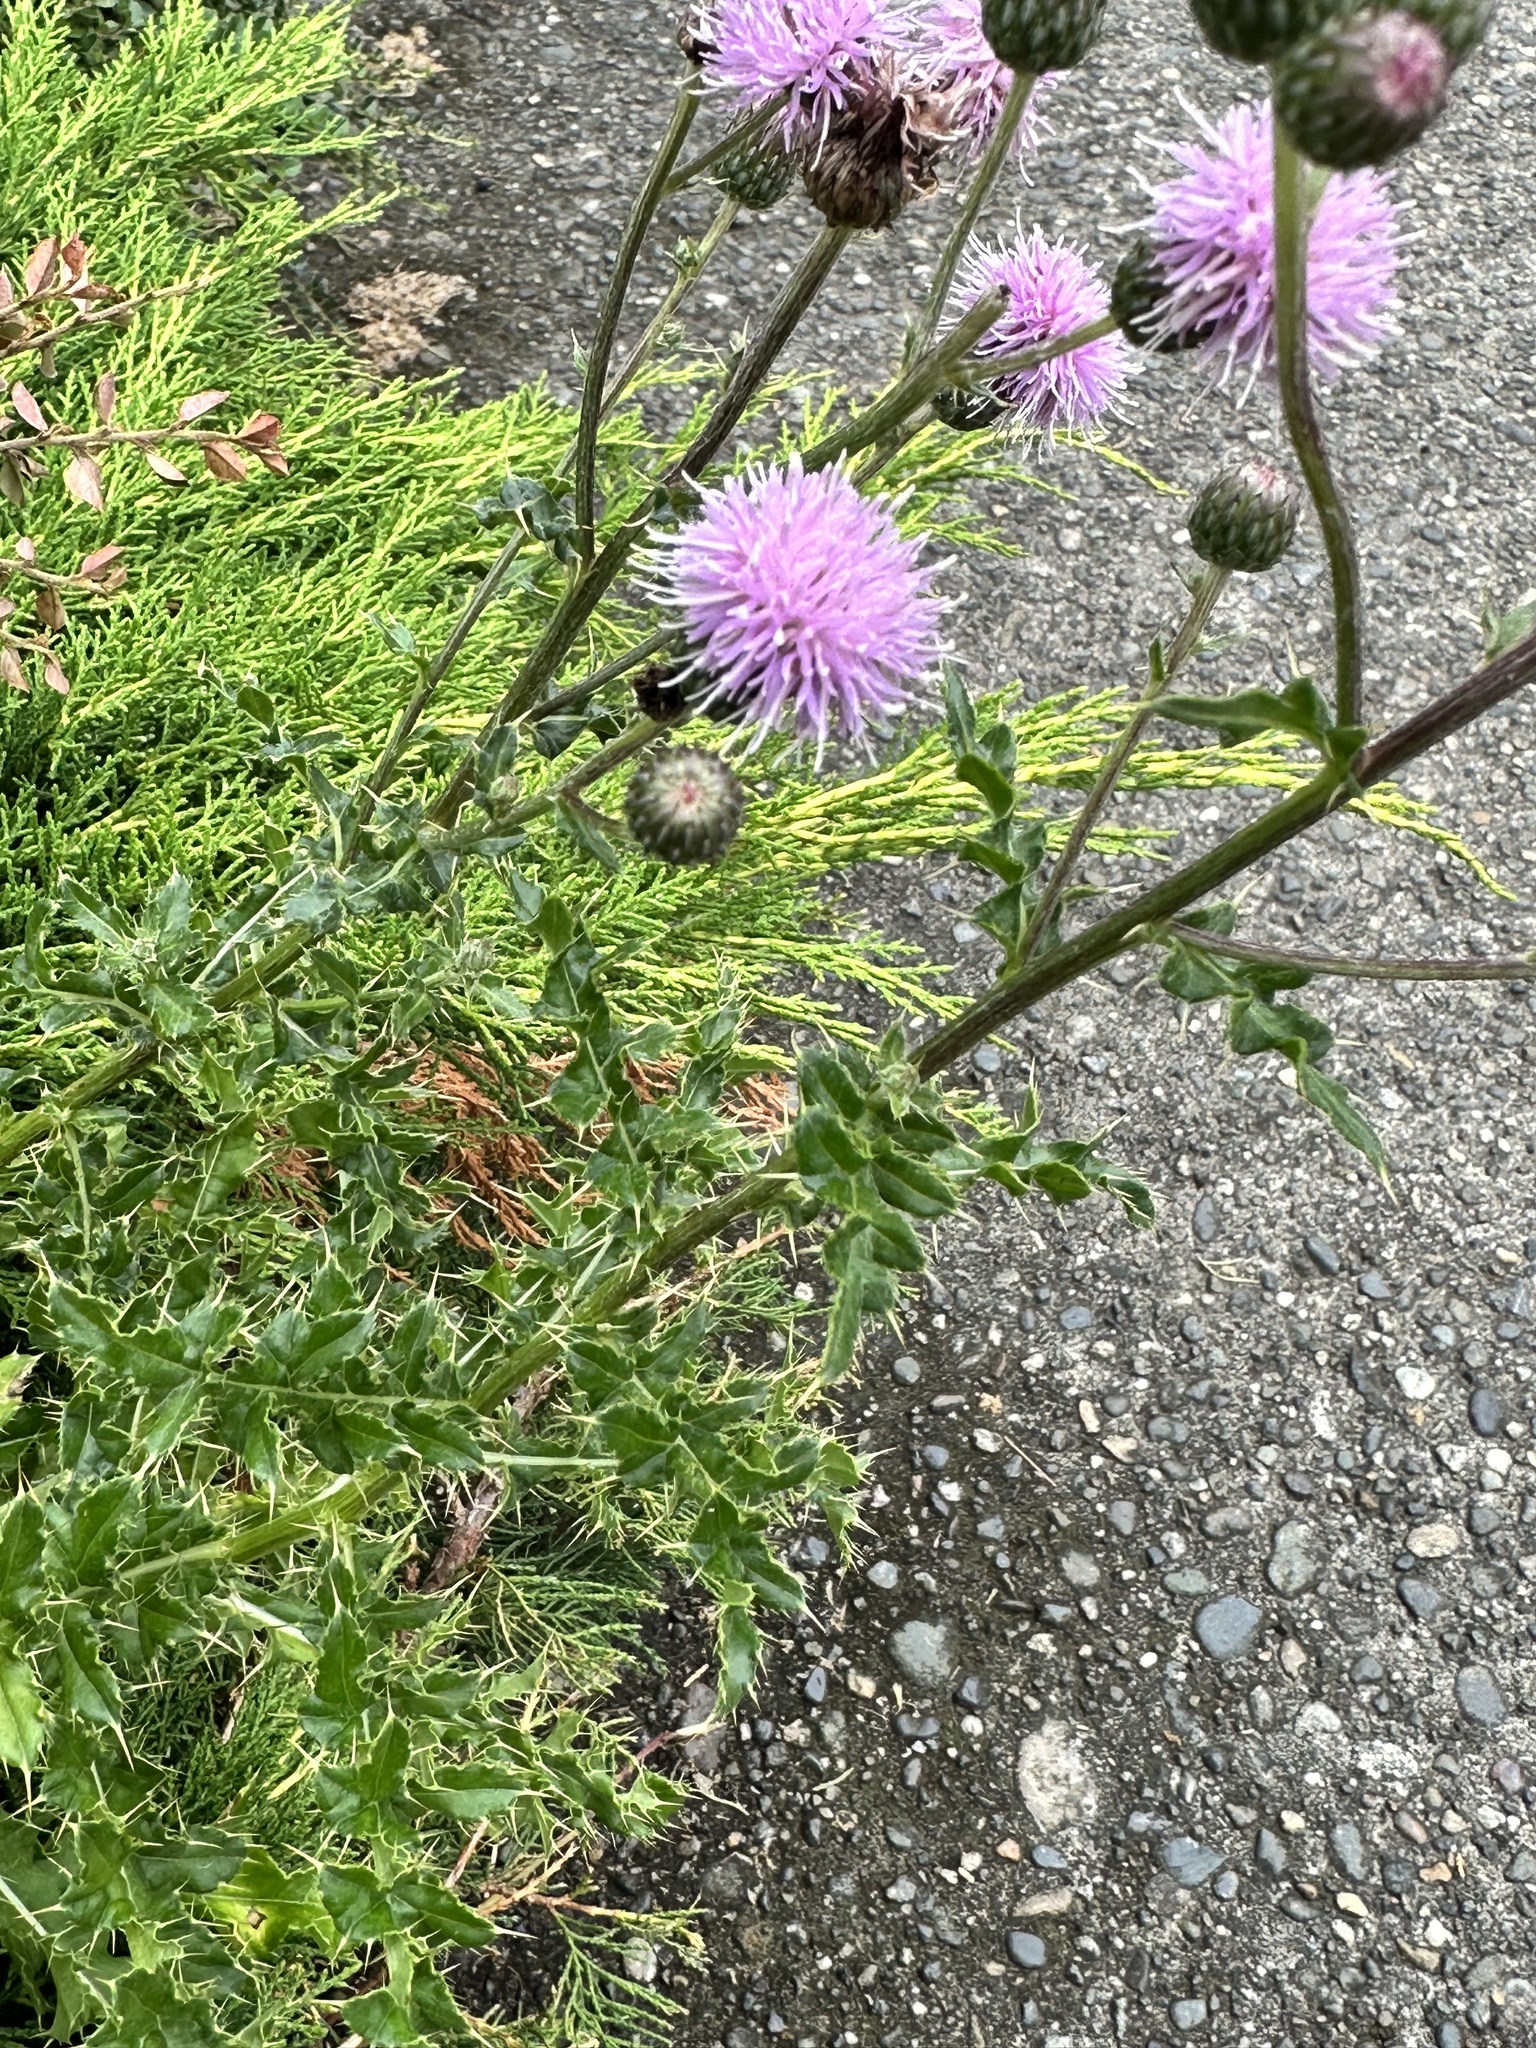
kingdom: Plantae
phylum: Tracheophyta
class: Magnoliopsida
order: Asterales
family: Asteraceae
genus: Cirsium
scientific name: Cirsium arvense
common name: Creeping thistle
